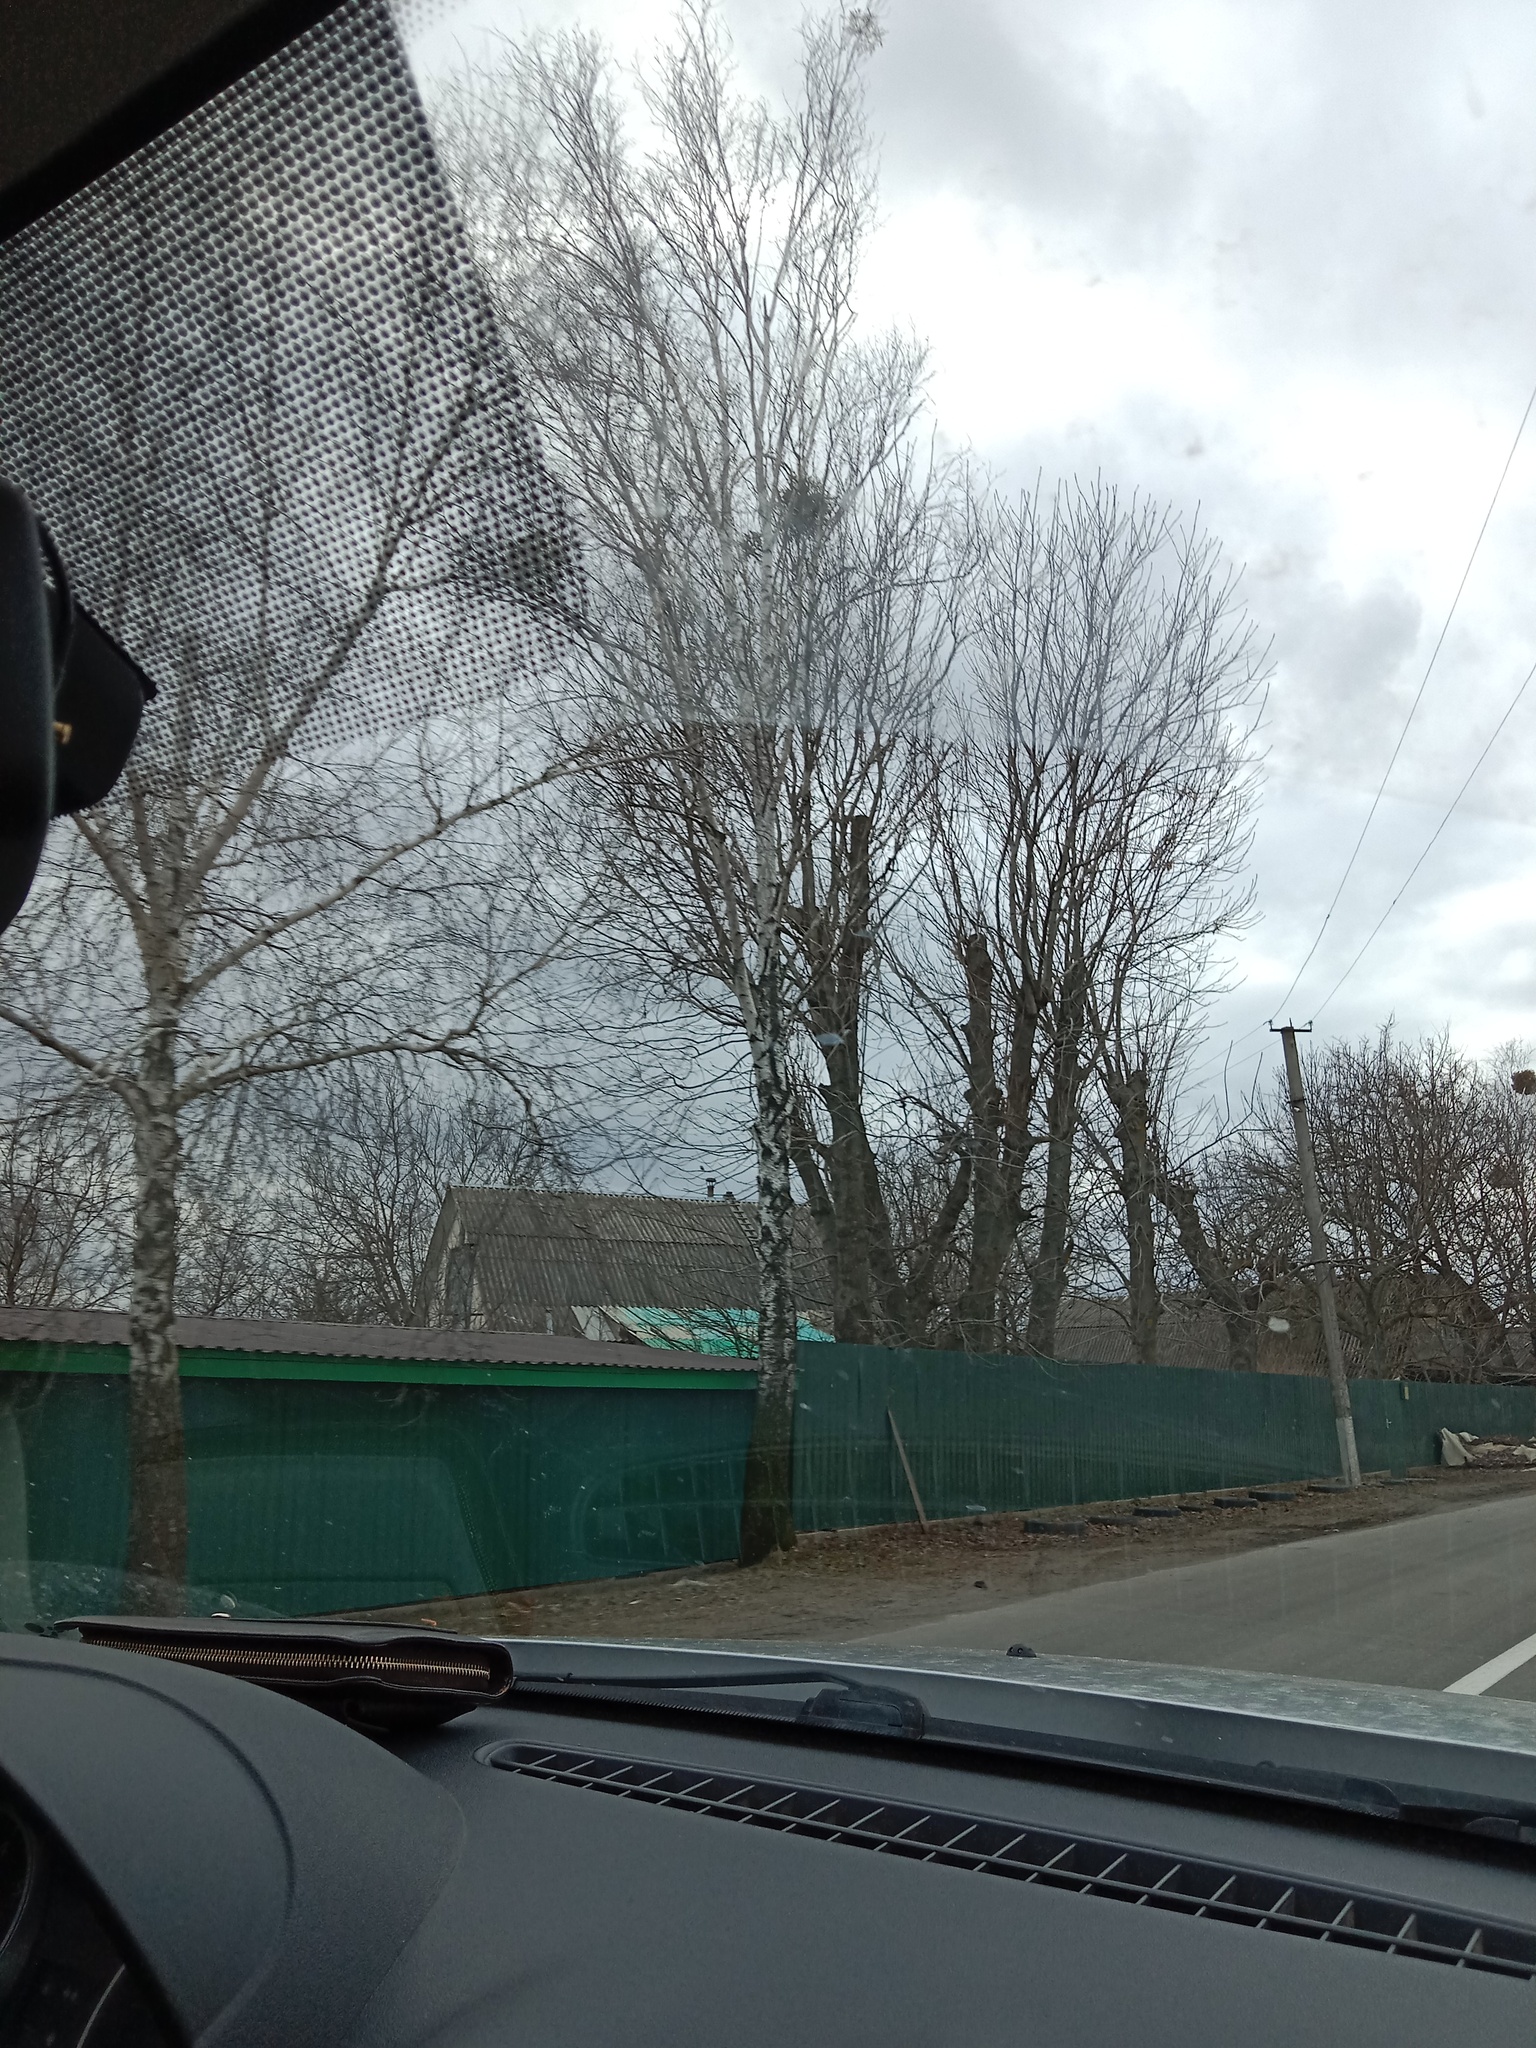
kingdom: Plantae
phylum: Tracheophyta
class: Magnoliopsida
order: Santalales
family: Viscaceae
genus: Viscum
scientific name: Viscum album
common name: Mistletoe
